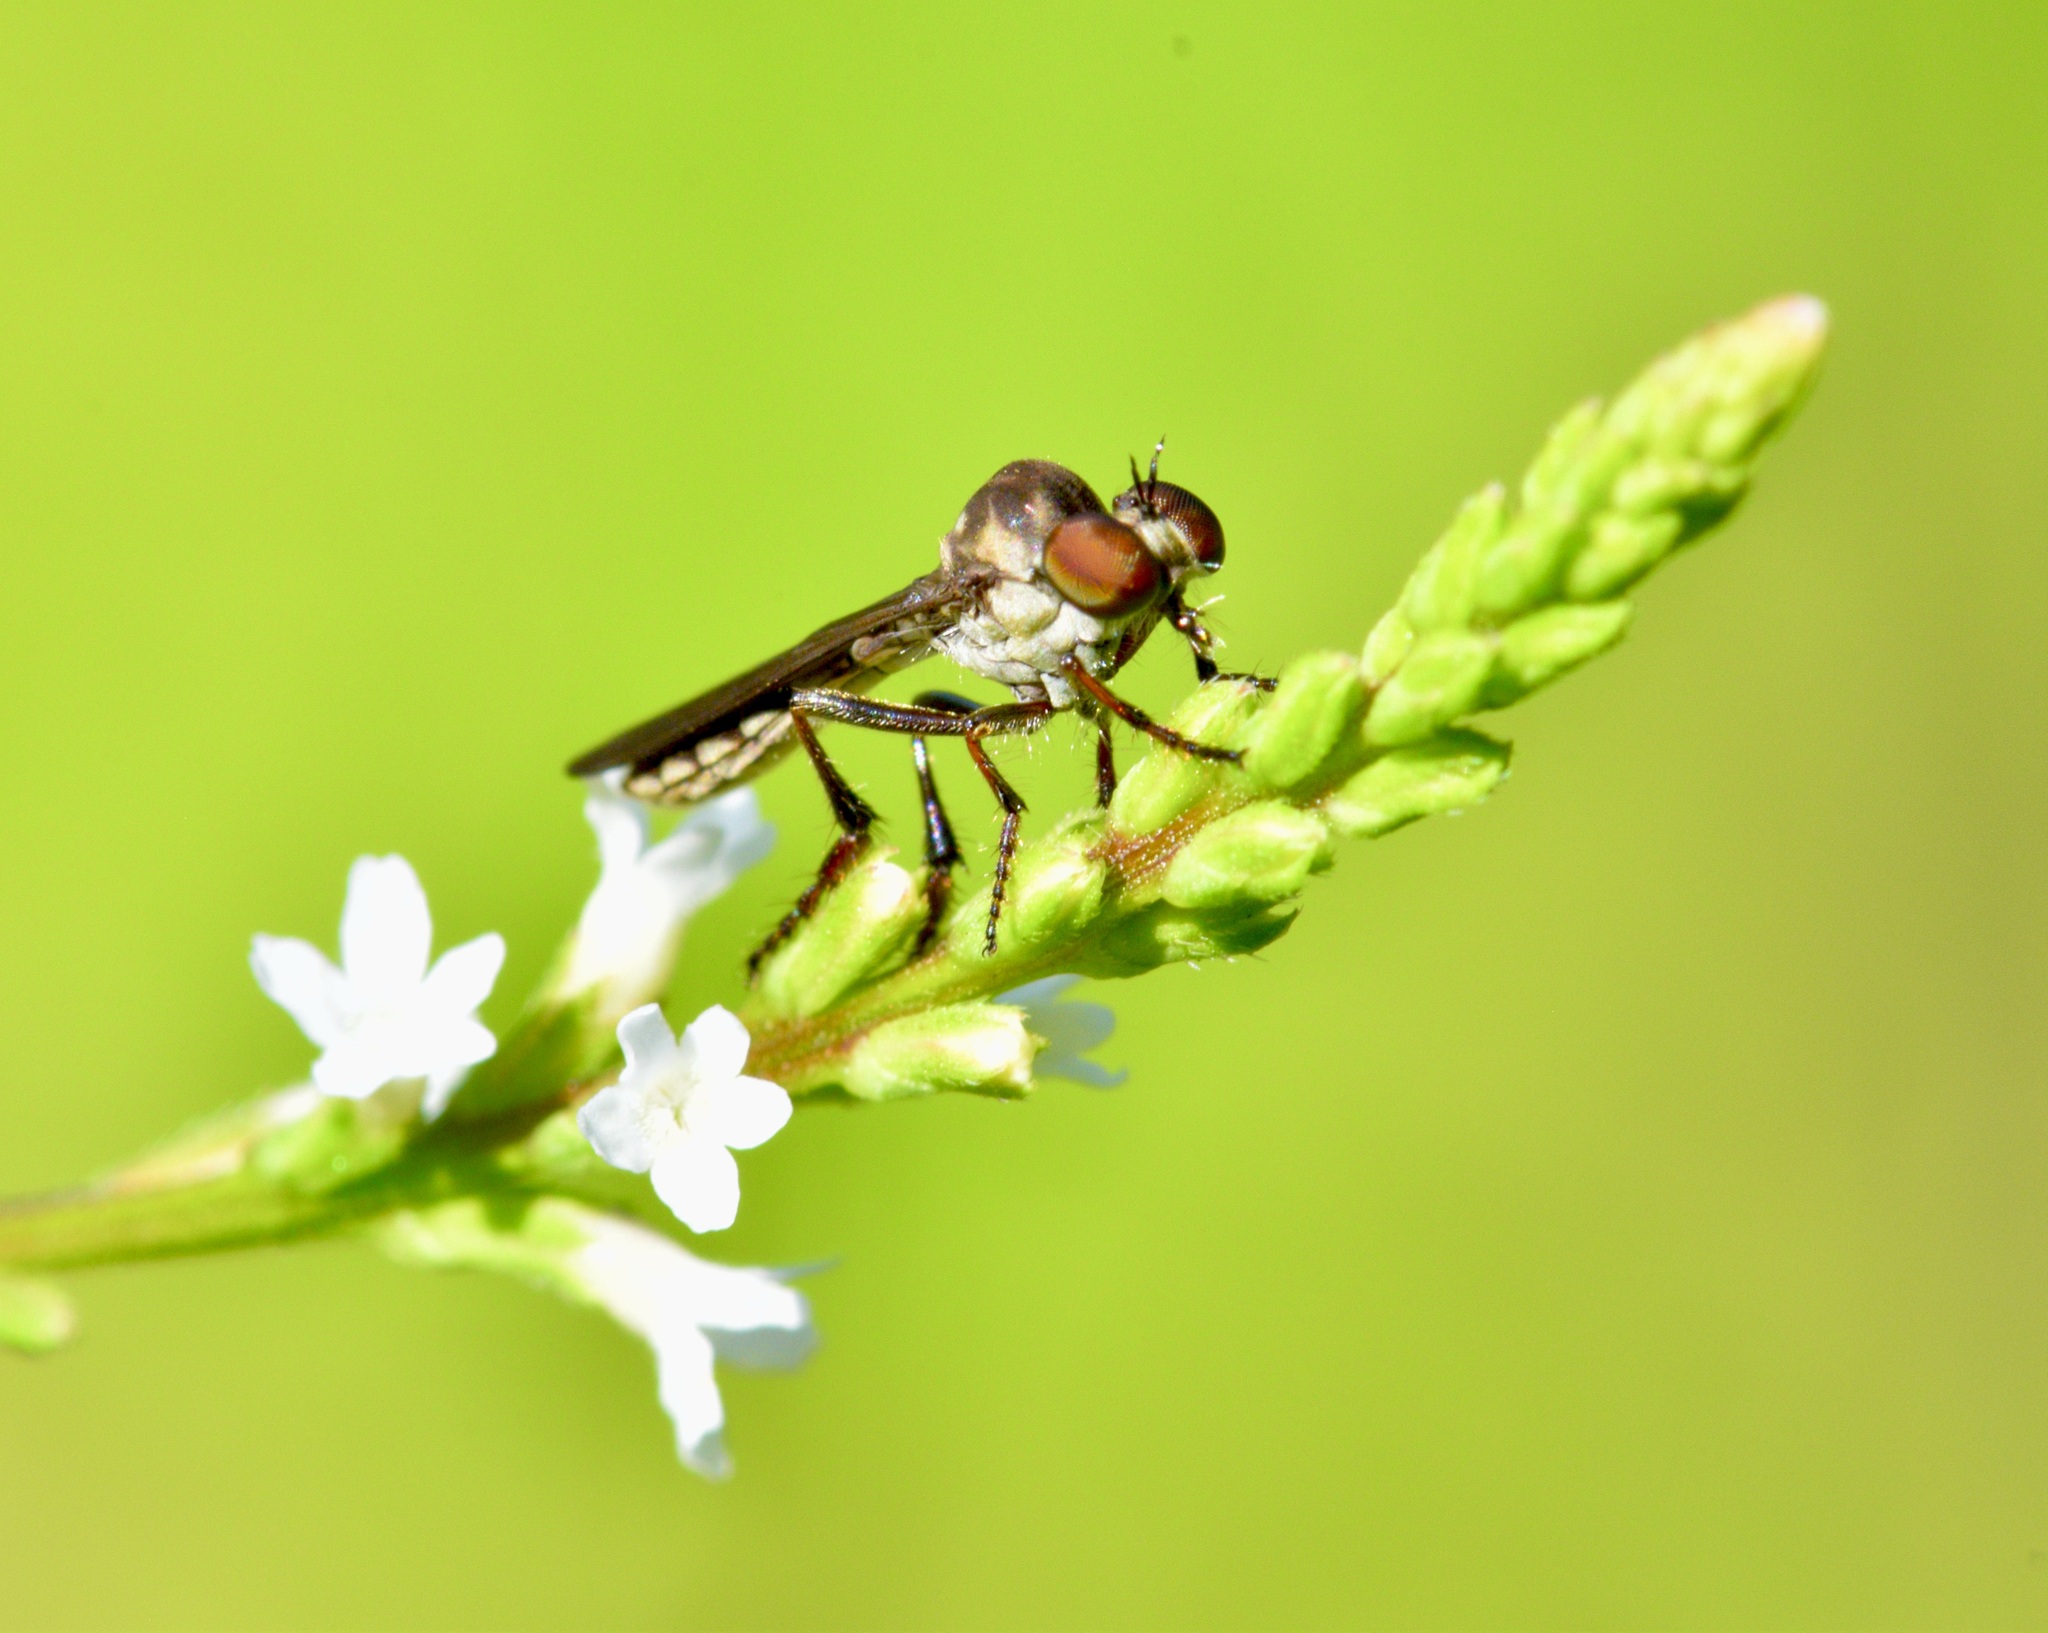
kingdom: Animalia
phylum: Arthropoda
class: Insecta
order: Diptera
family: Asilidae
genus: Holcocephala
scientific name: Holcocephala calva
